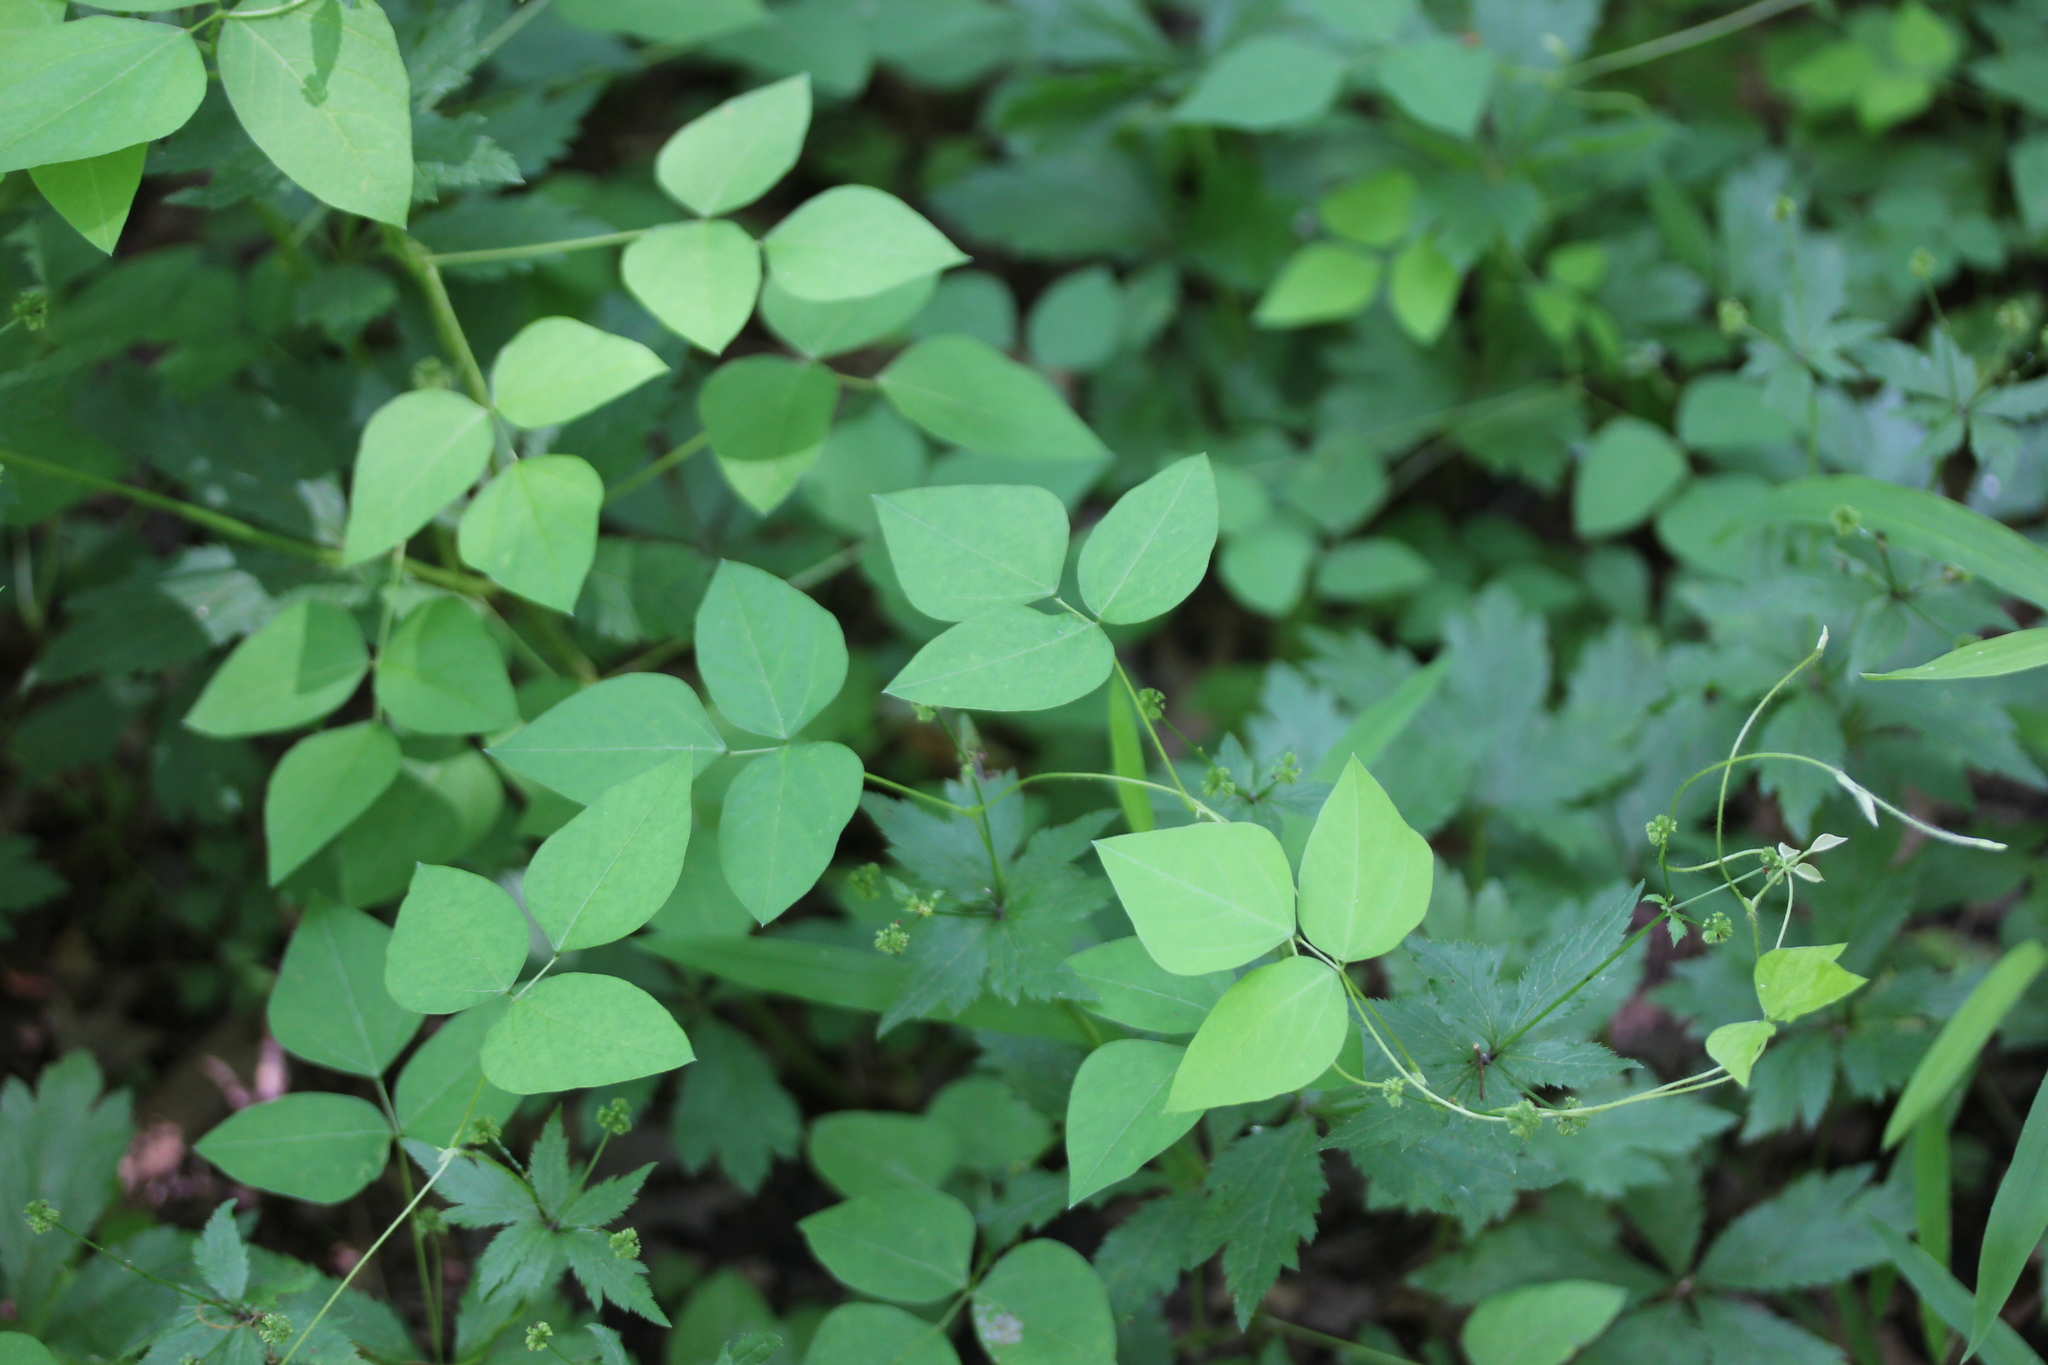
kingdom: Plantae
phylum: Tracheophyta
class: Magnoliopsida
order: Fabales
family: Fabaceae
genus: Amphicarpaea
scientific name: Amphicarpaea bracteata
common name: American hog peanut
